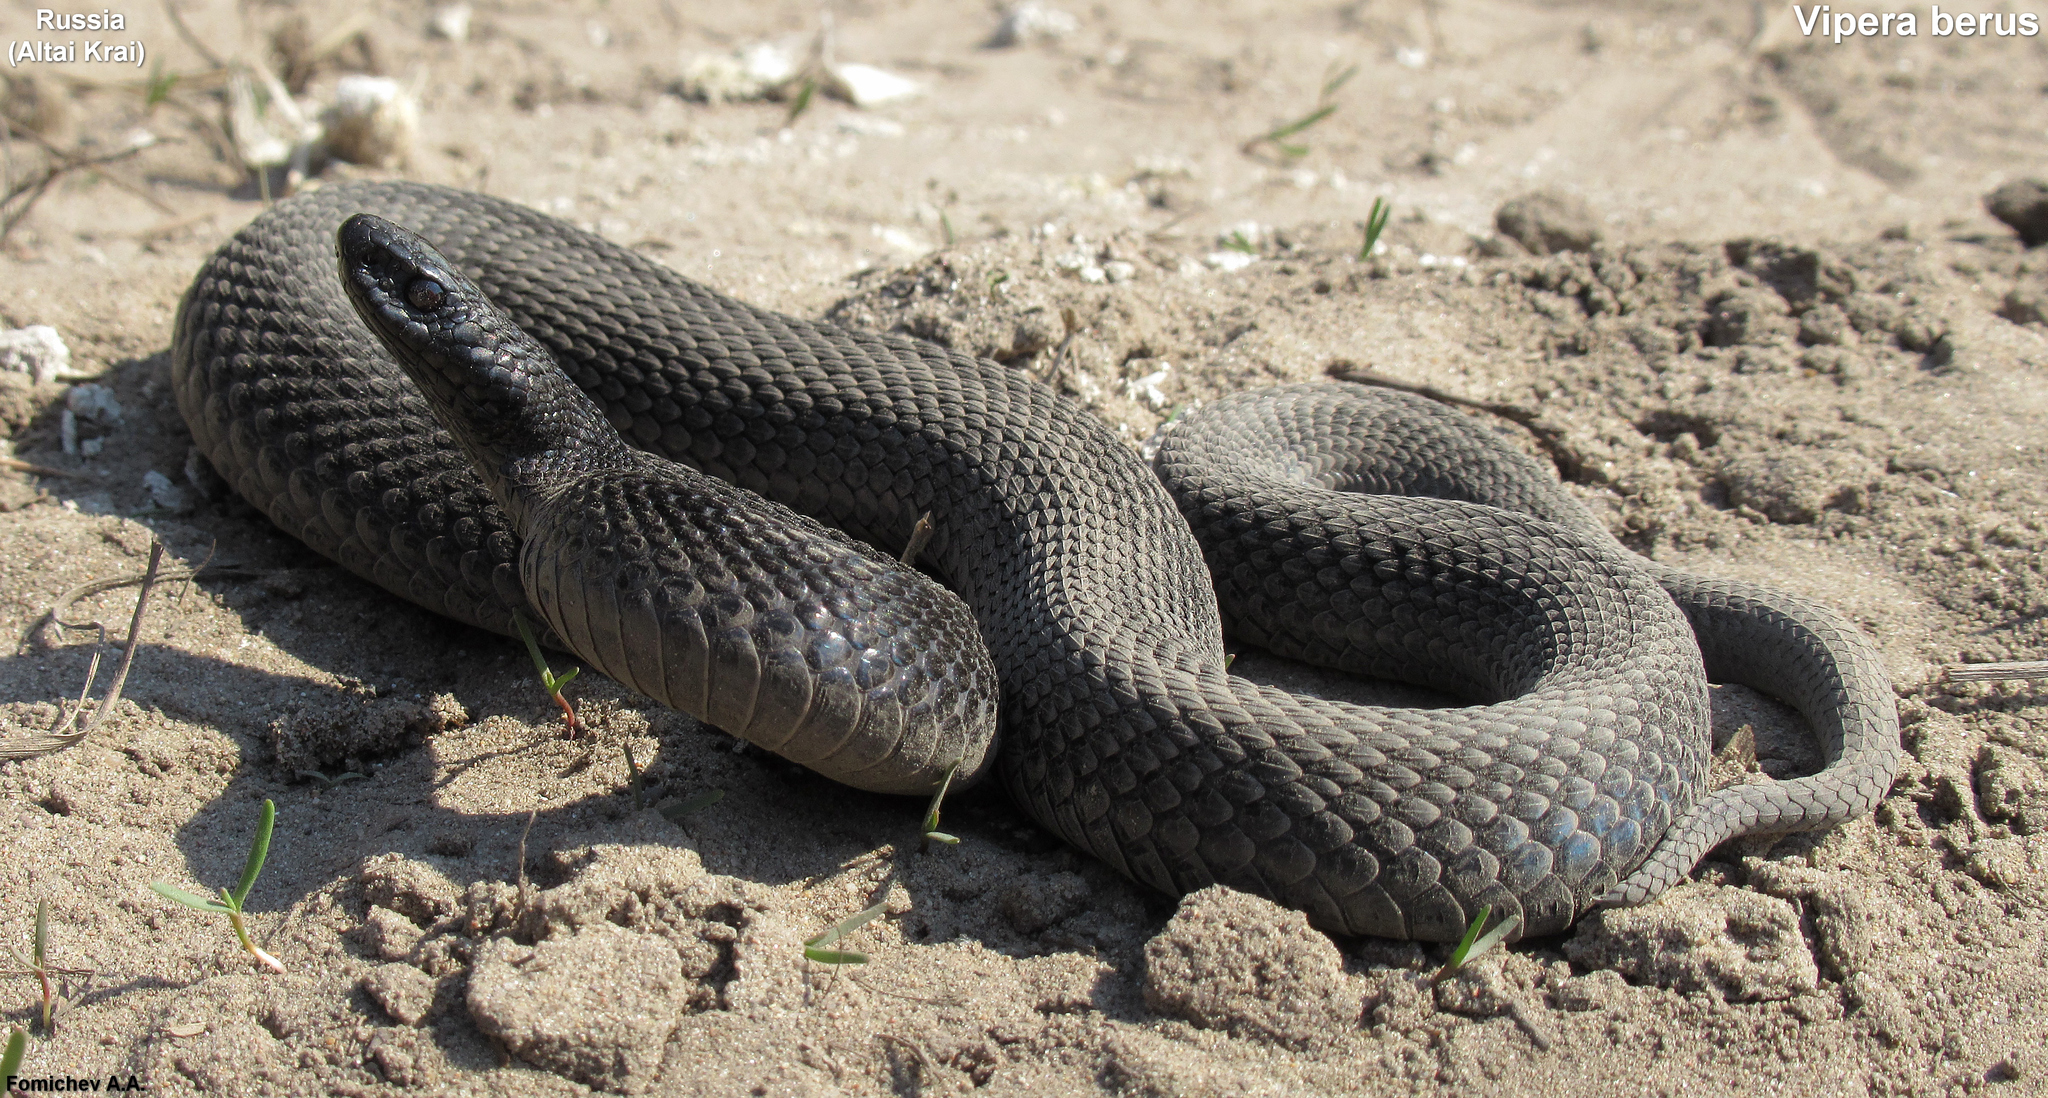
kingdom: Animalia
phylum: Chordata
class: Squamata
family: Viperidae
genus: Vipera
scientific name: Vipera berus
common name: Adder
